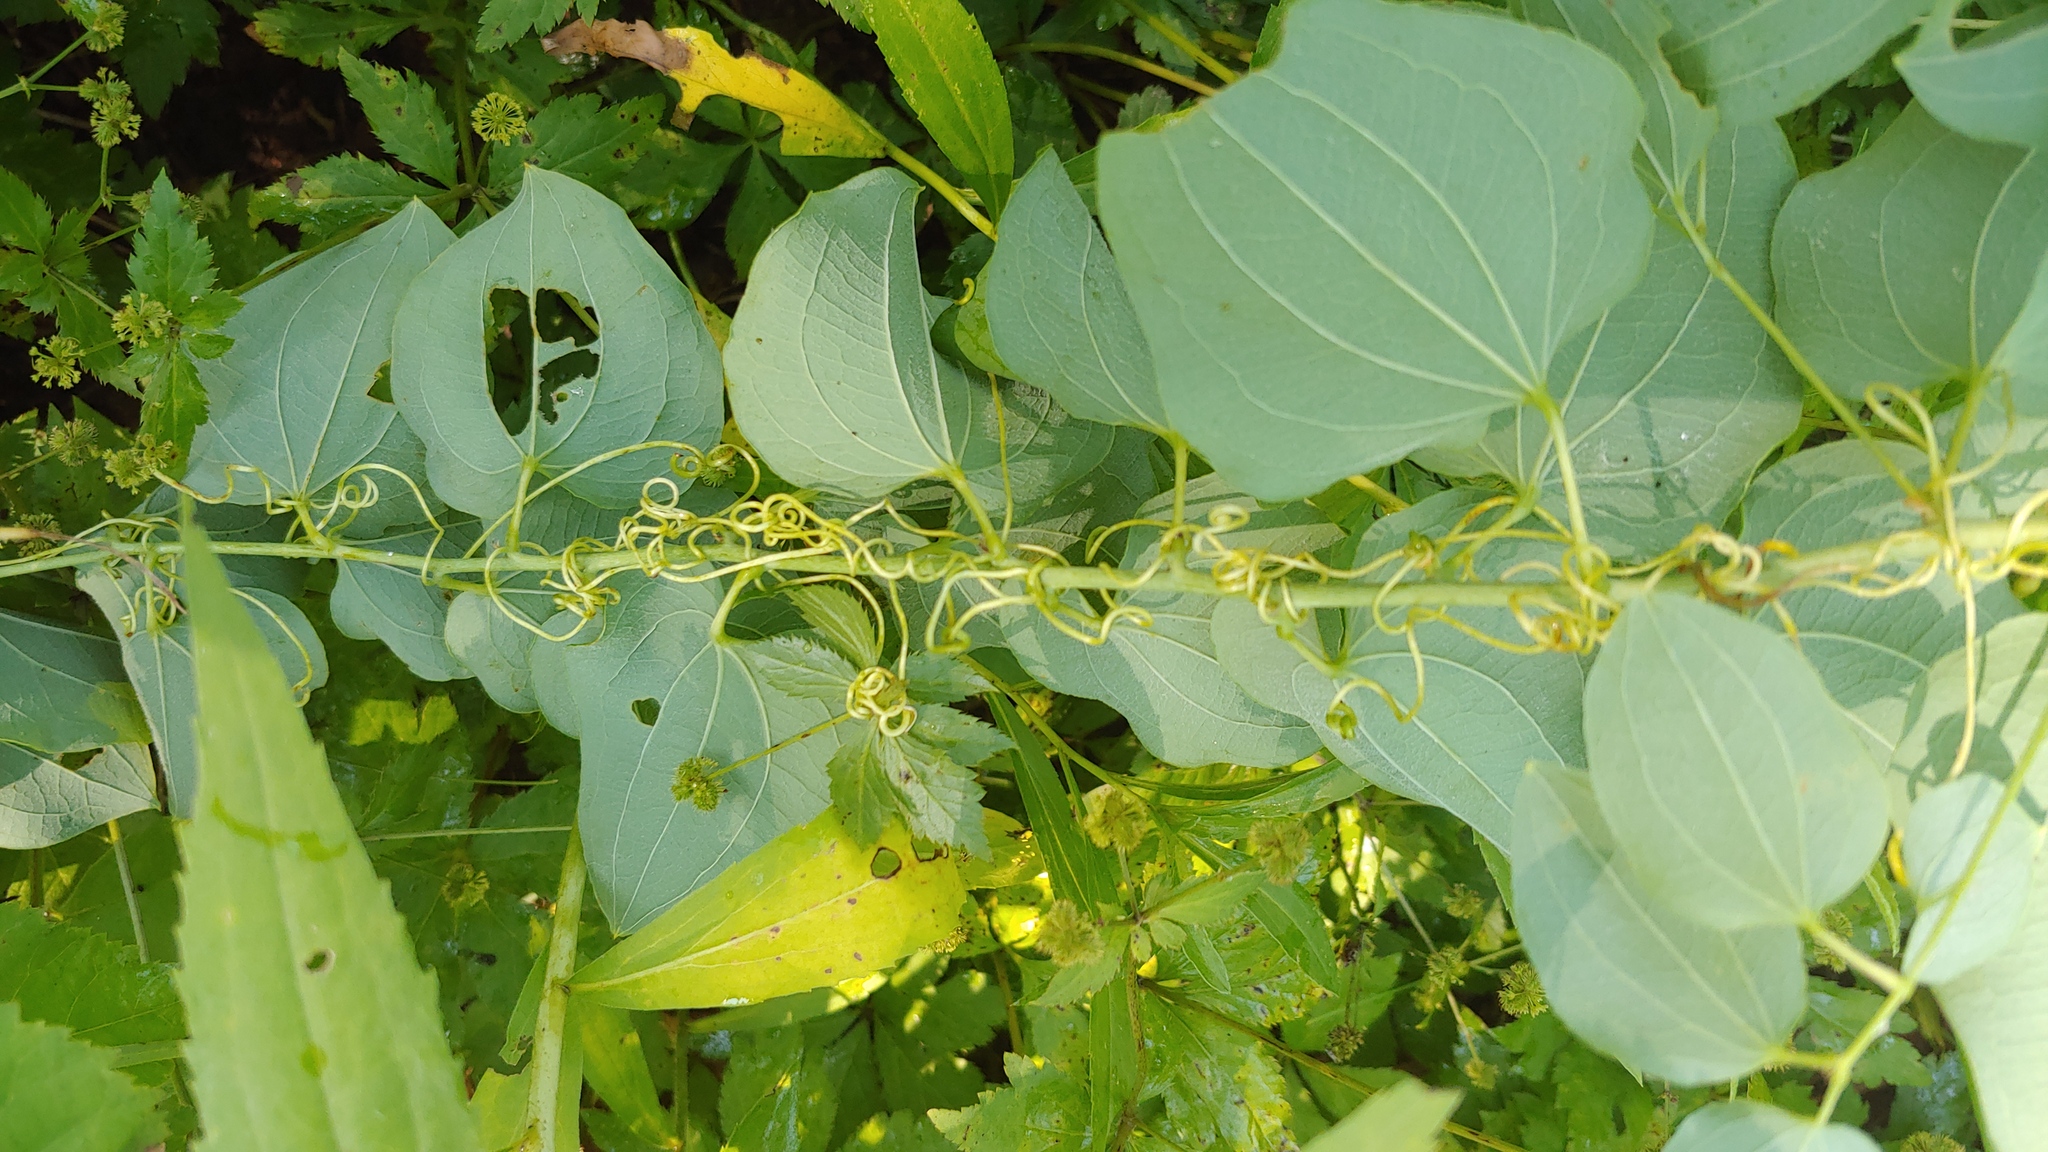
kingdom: Plantae
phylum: Tracheophyta
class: Liliopsida
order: Liliales
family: Smilacaceae
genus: Smilax
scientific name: Smilax lasioneura
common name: Blue ridge carrionflower
